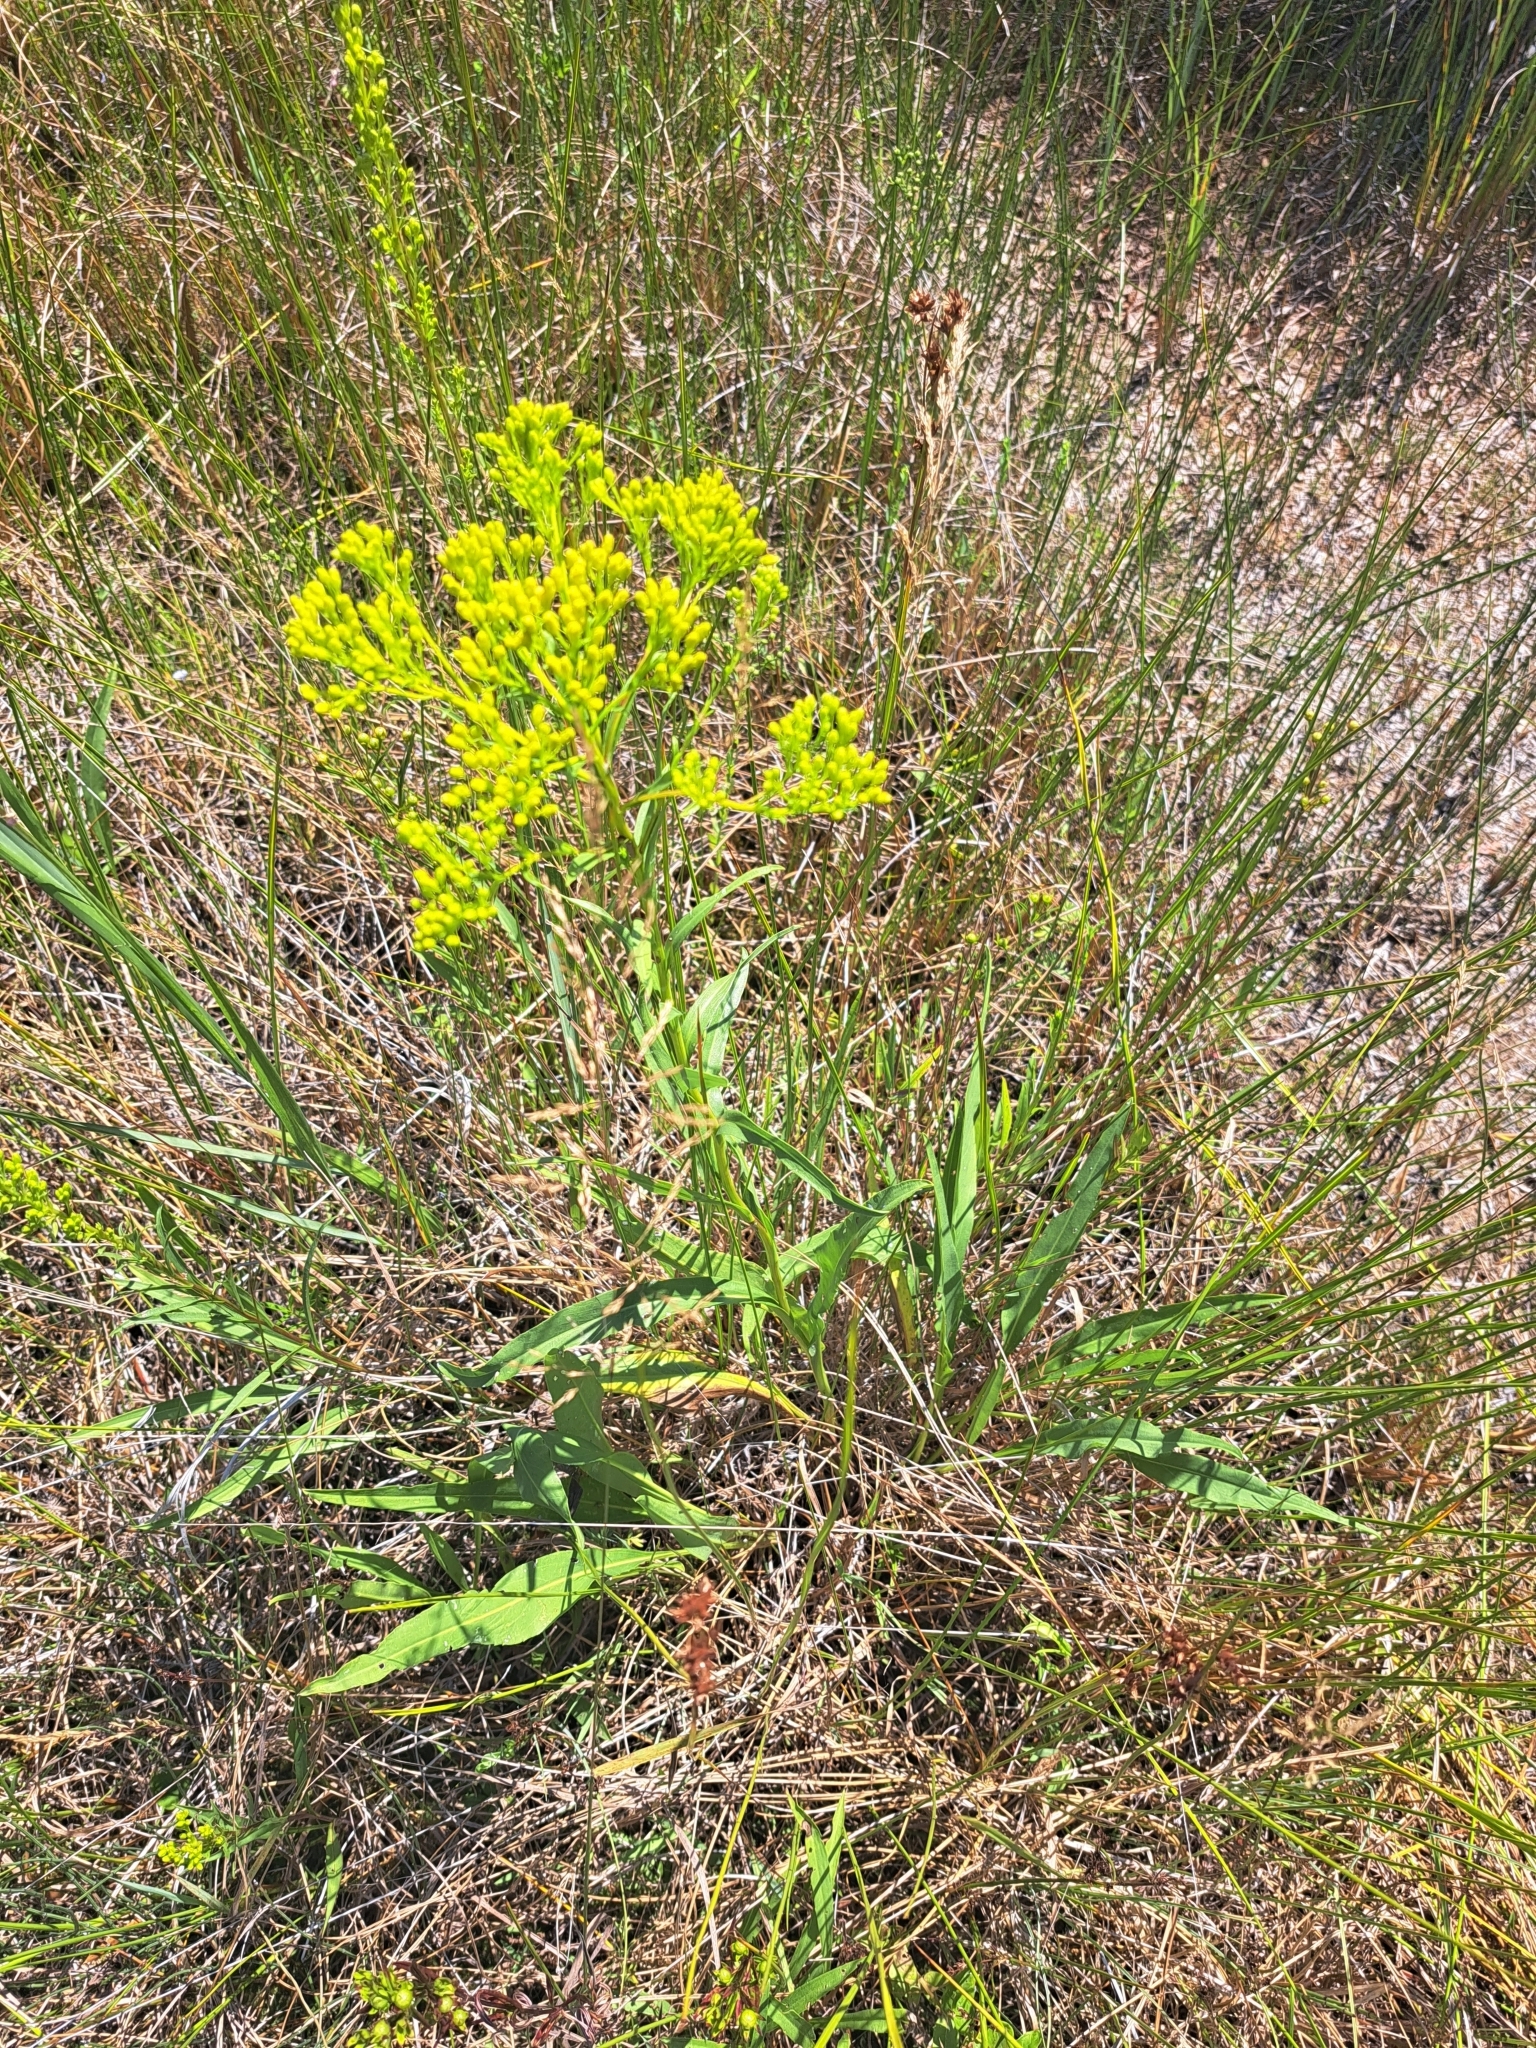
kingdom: Plantae
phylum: Tracheophyta
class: Magnoliopsida
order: Asterales
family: Asteraceae
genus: Solidago
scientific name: Solidago ohioensis
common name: Ohio goldenrod
